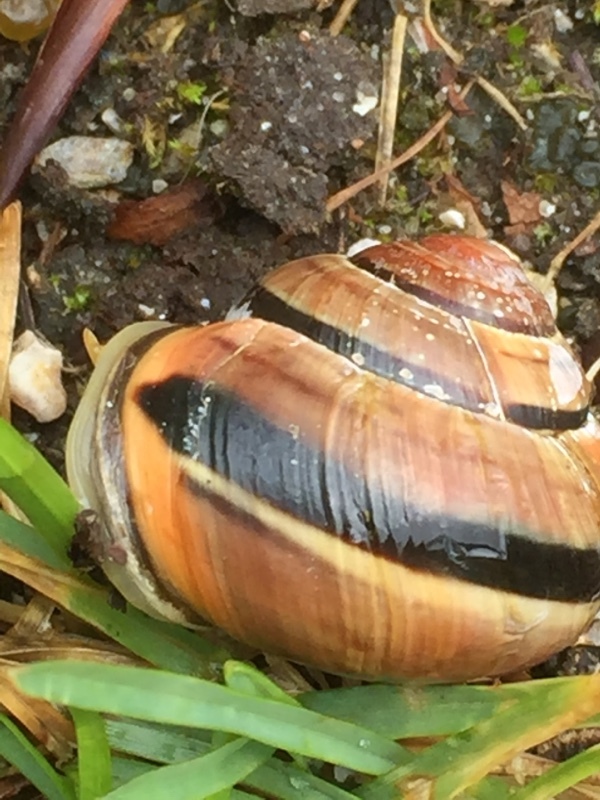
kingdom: Animalia
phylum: Mollusca
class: Gastropoda
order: Stylommatophora
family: Helicidae
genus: Cepaea
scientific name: Cepaea nemoralis
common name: Grovesnail
